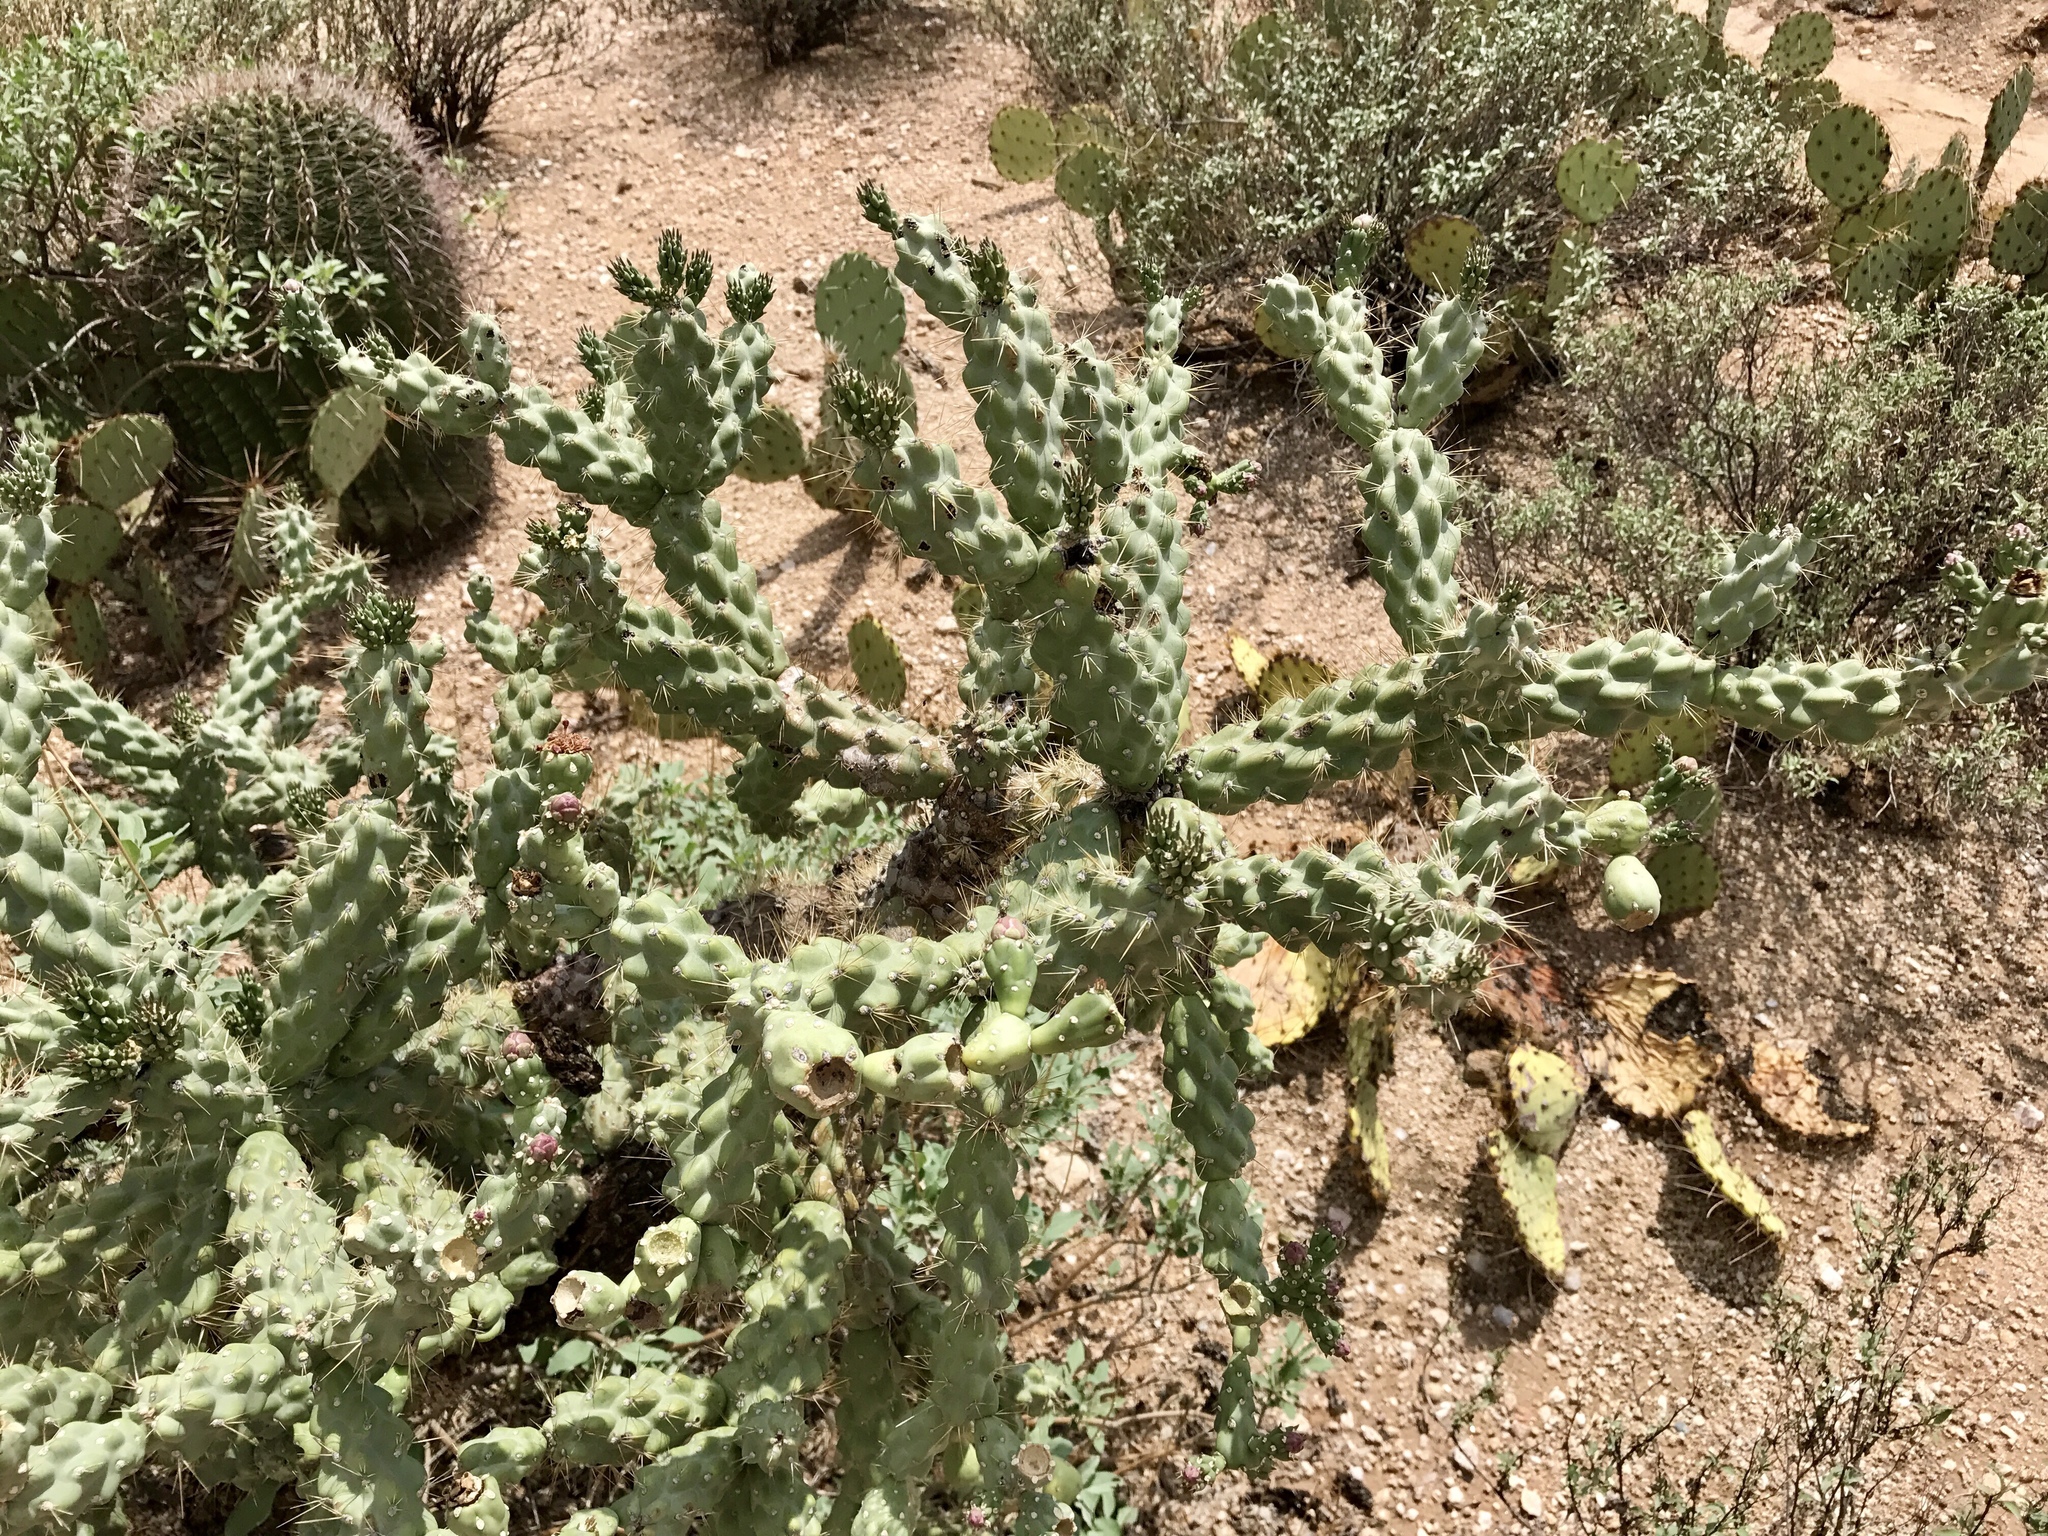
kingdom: Plantae
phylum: Tracheophyta
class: Magnoliopsida
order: Caryophyllales
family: Cactaceae
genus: Cylindropuntia
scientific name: Cylindropuntia fulgida
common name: Jumping cholla
